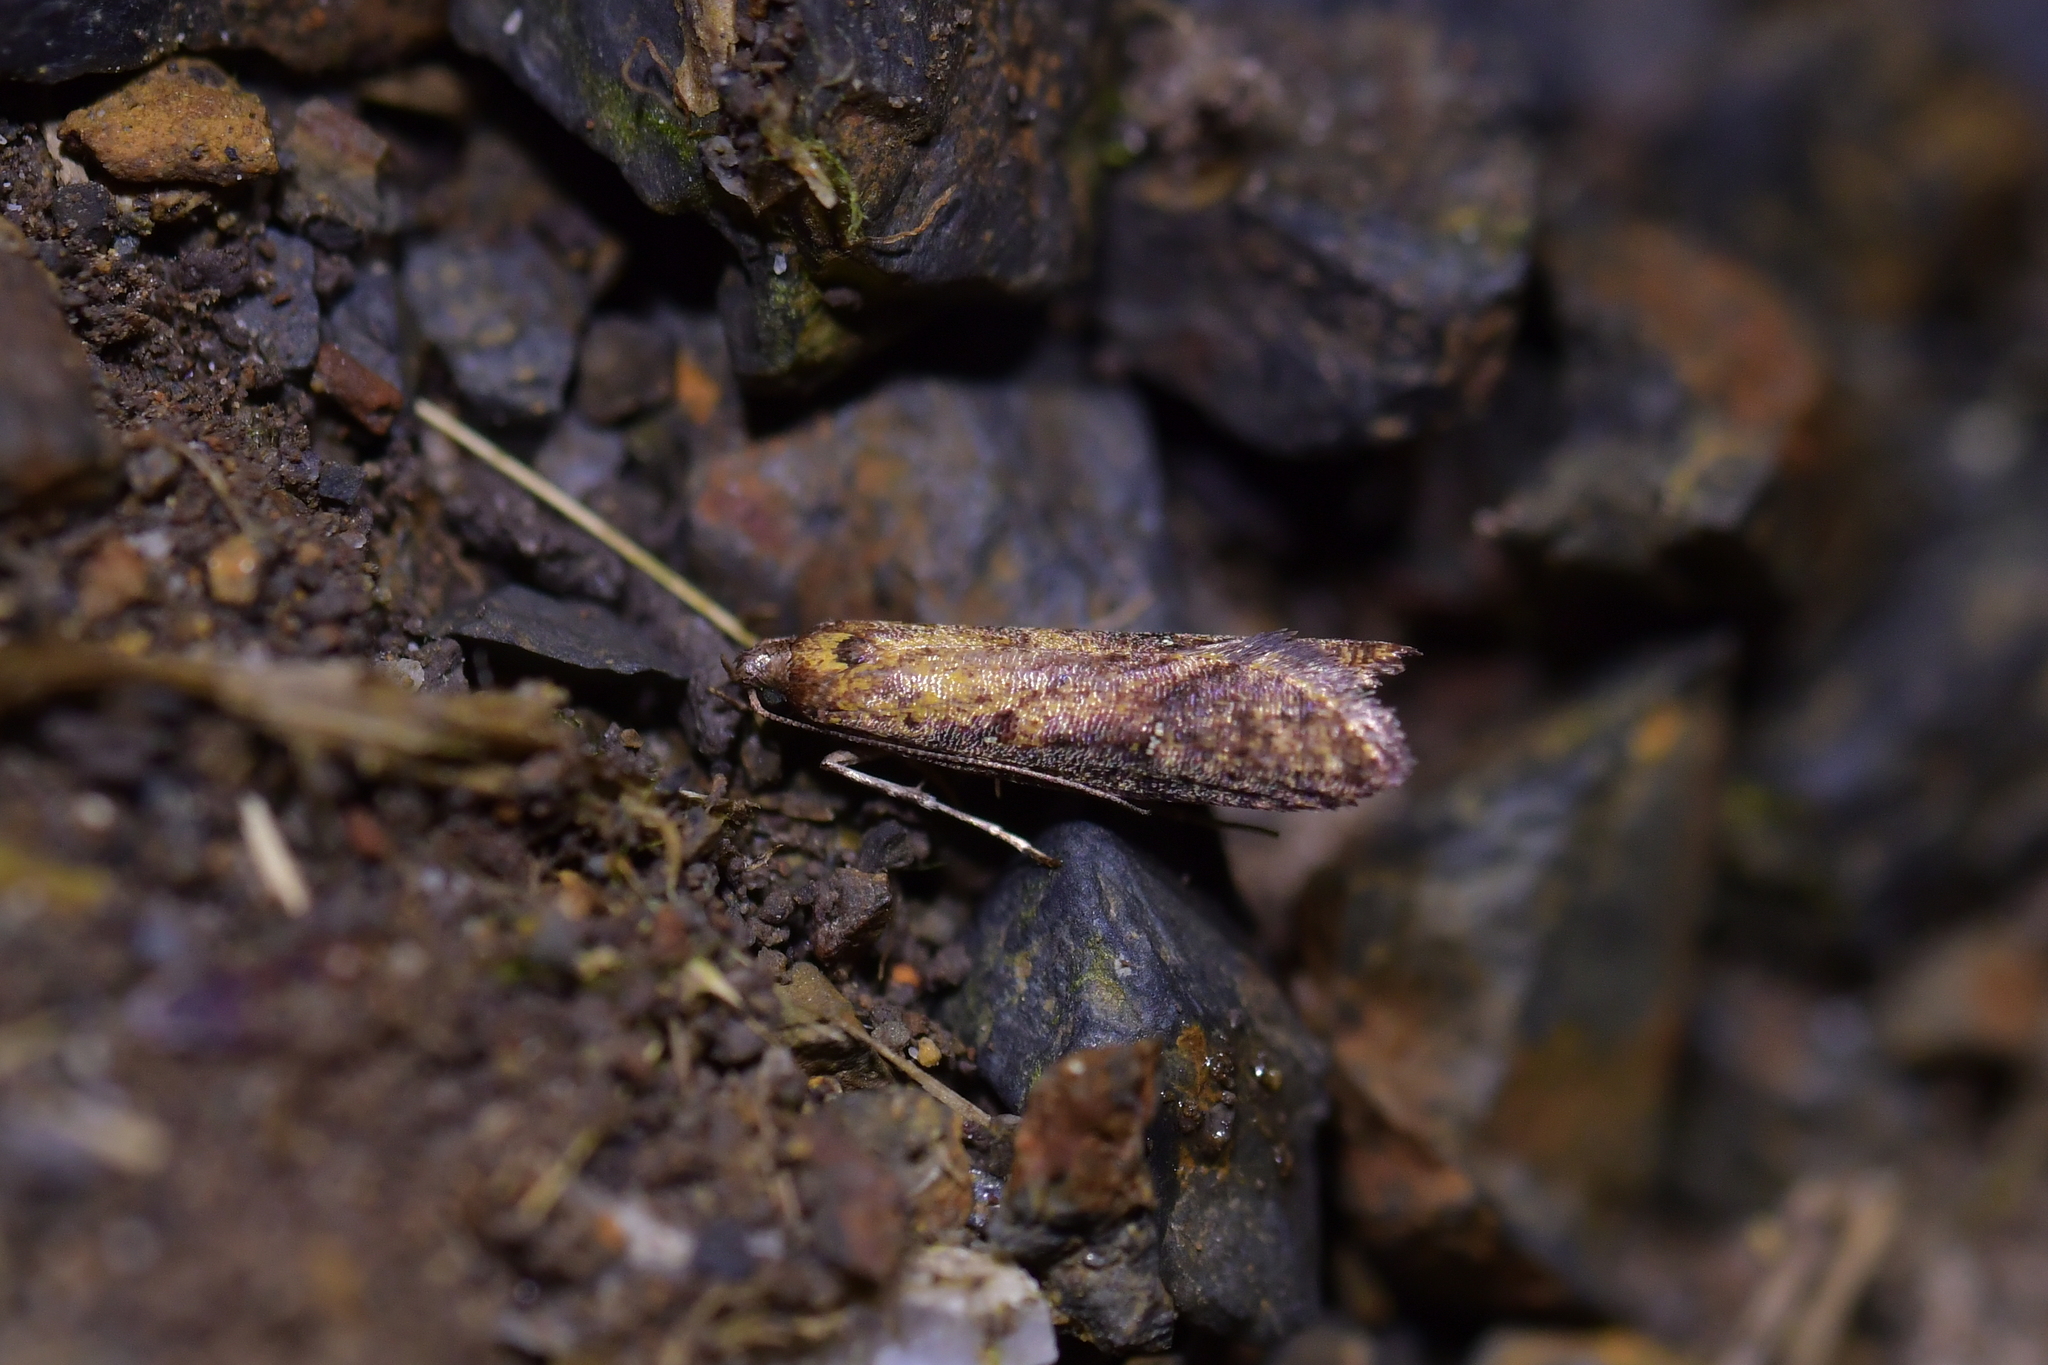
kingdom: Animalia
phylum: Arthropoda
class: Insecta
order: Lepidoptera
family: Plutellidae
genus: Cadmogenes
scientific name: Cadmogenes literata
